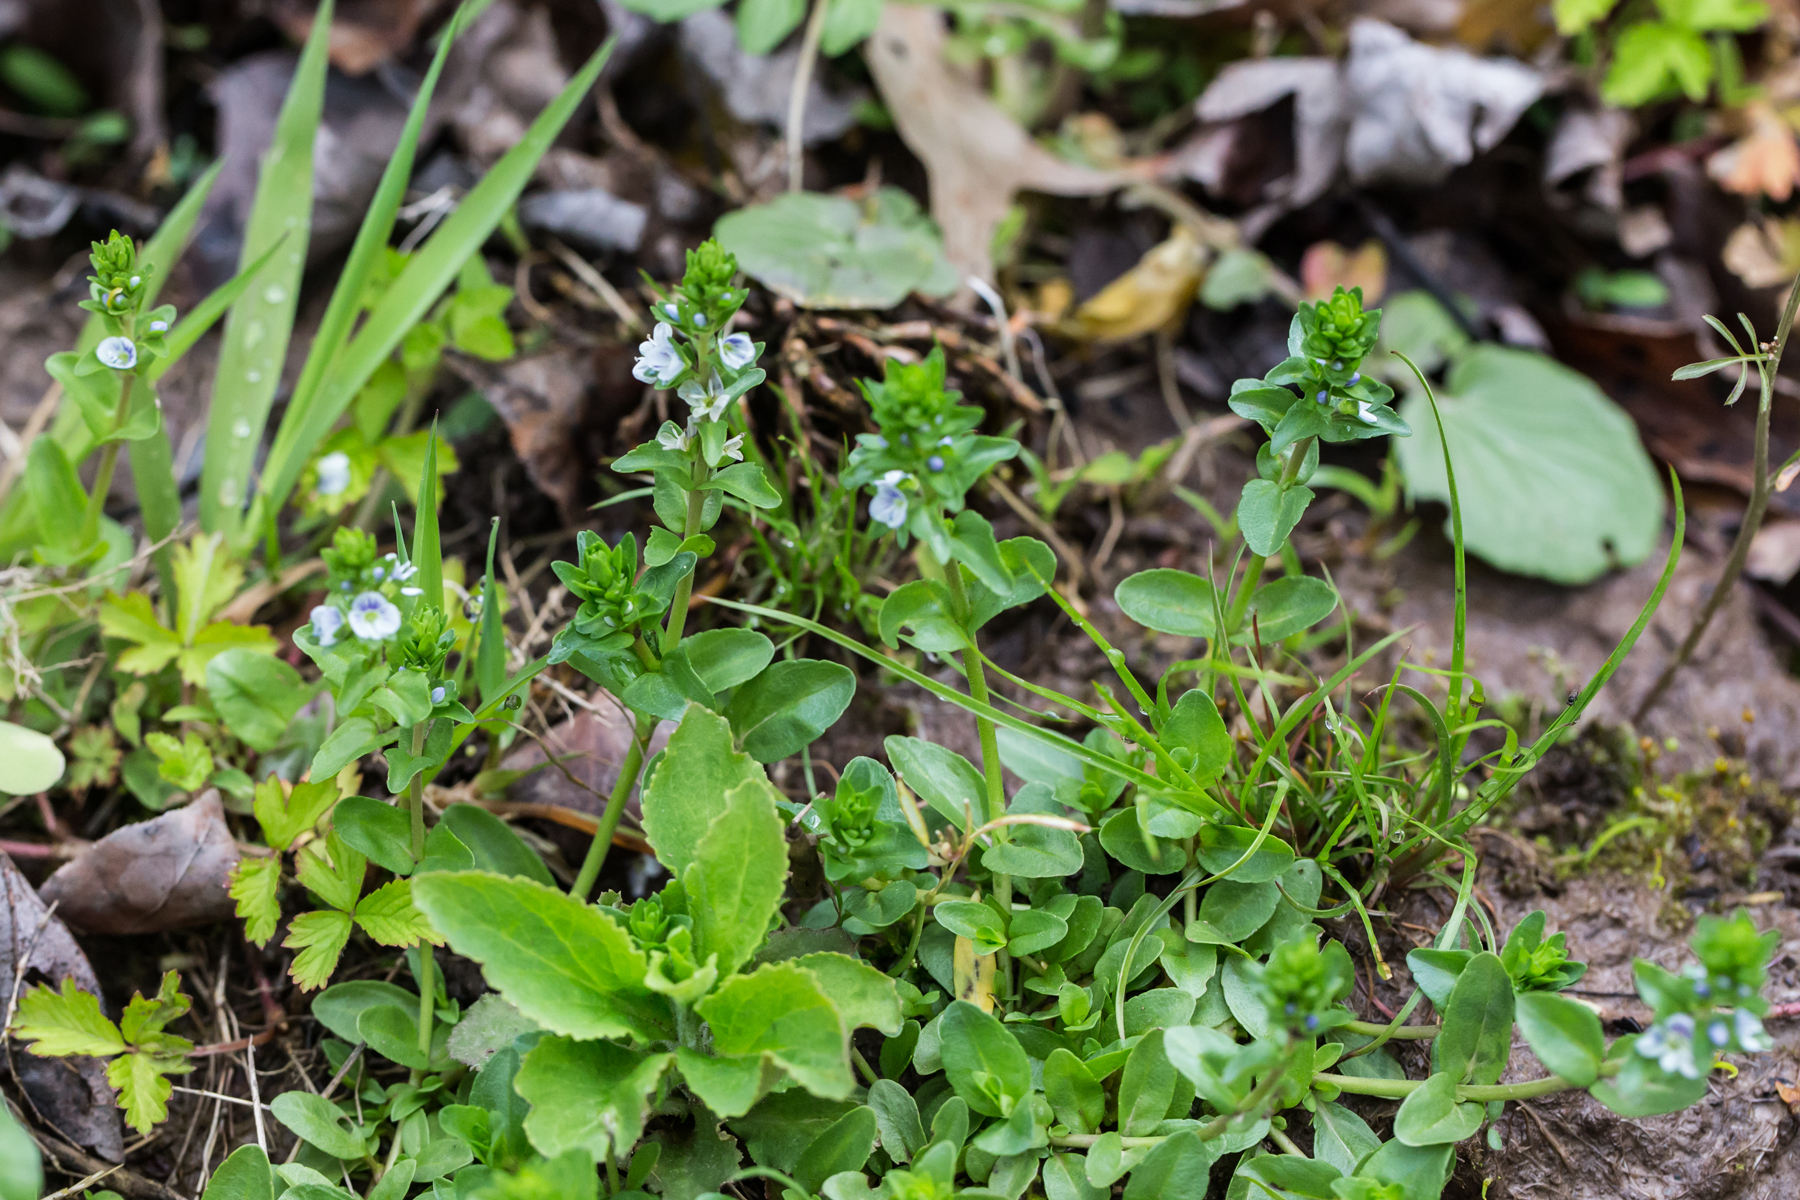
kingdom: Plantae
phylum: Tracheophyta
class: Magnoliopsida
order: Lamiales
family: Plantaginaceae
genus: Veronica
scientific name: Veronica serpyllifolia
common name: Thyme-leaved speedwell
